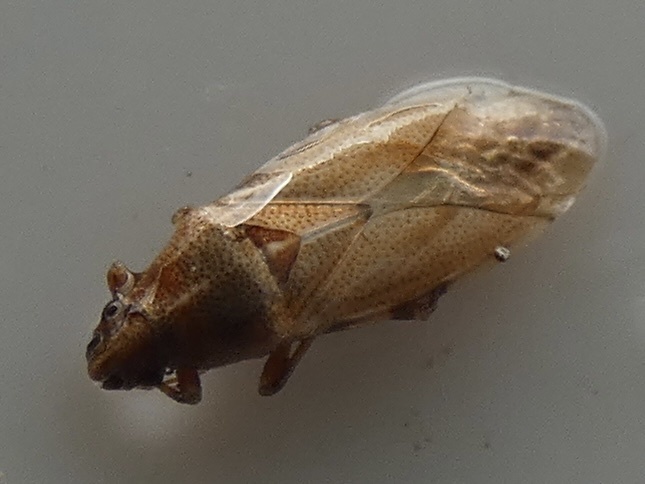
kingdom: Animalia
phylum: Arthropoda
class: Insecta
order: Hemiptera
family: Cymidae
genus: Cymus
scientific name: Cymus glandicolor
